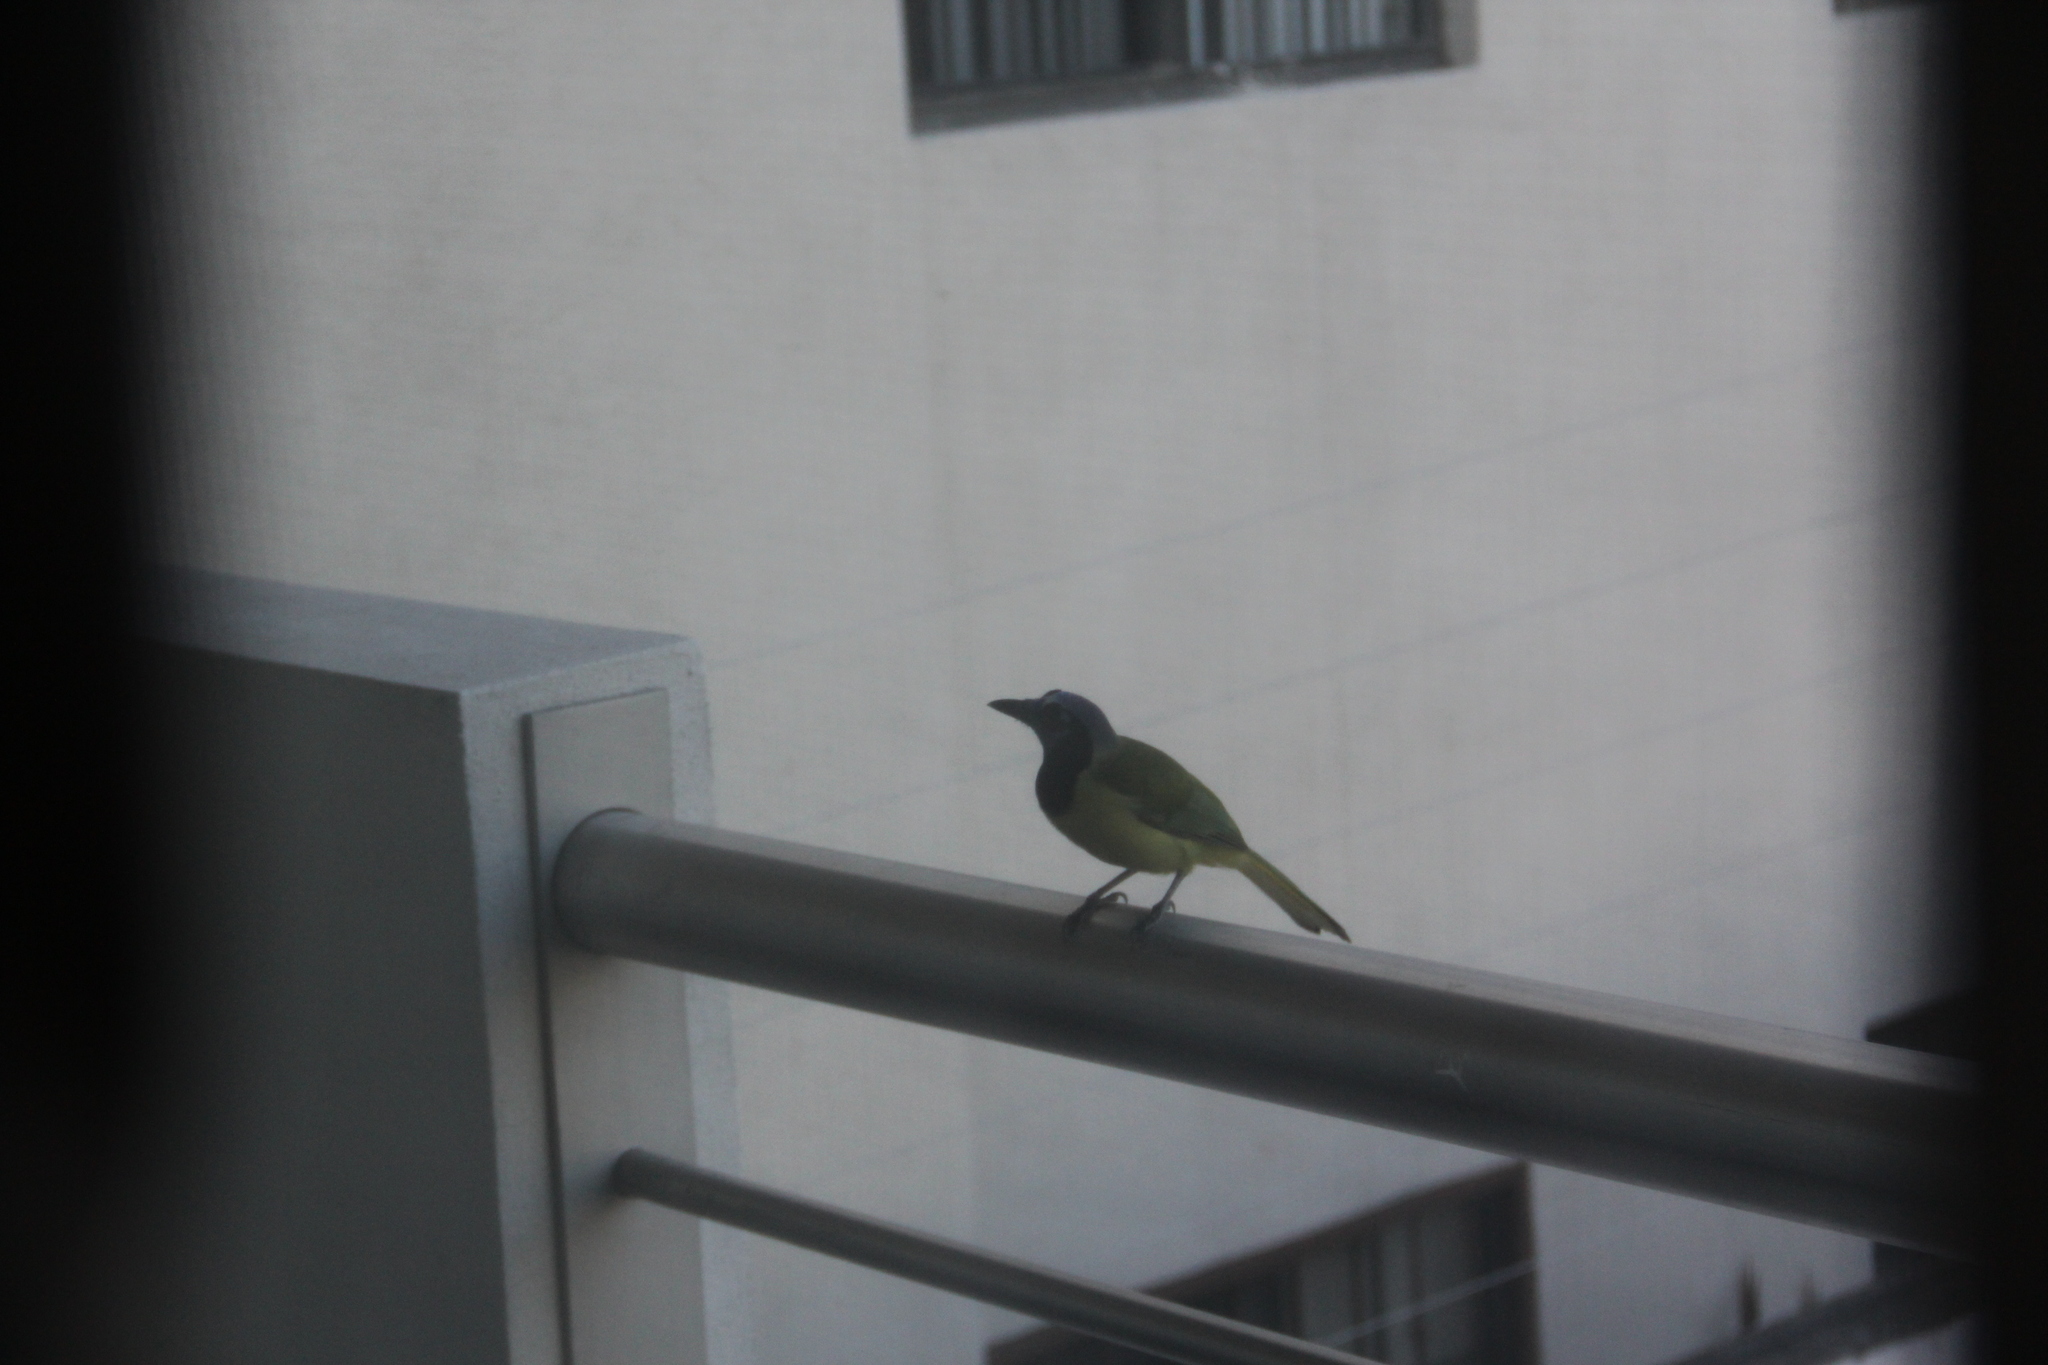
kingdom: Animalia
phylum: Chordata
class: Aves
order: Passeriformes
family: Corvidae
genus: Cyanocorax
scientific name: Cyanocorax yncas
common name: Green jay
